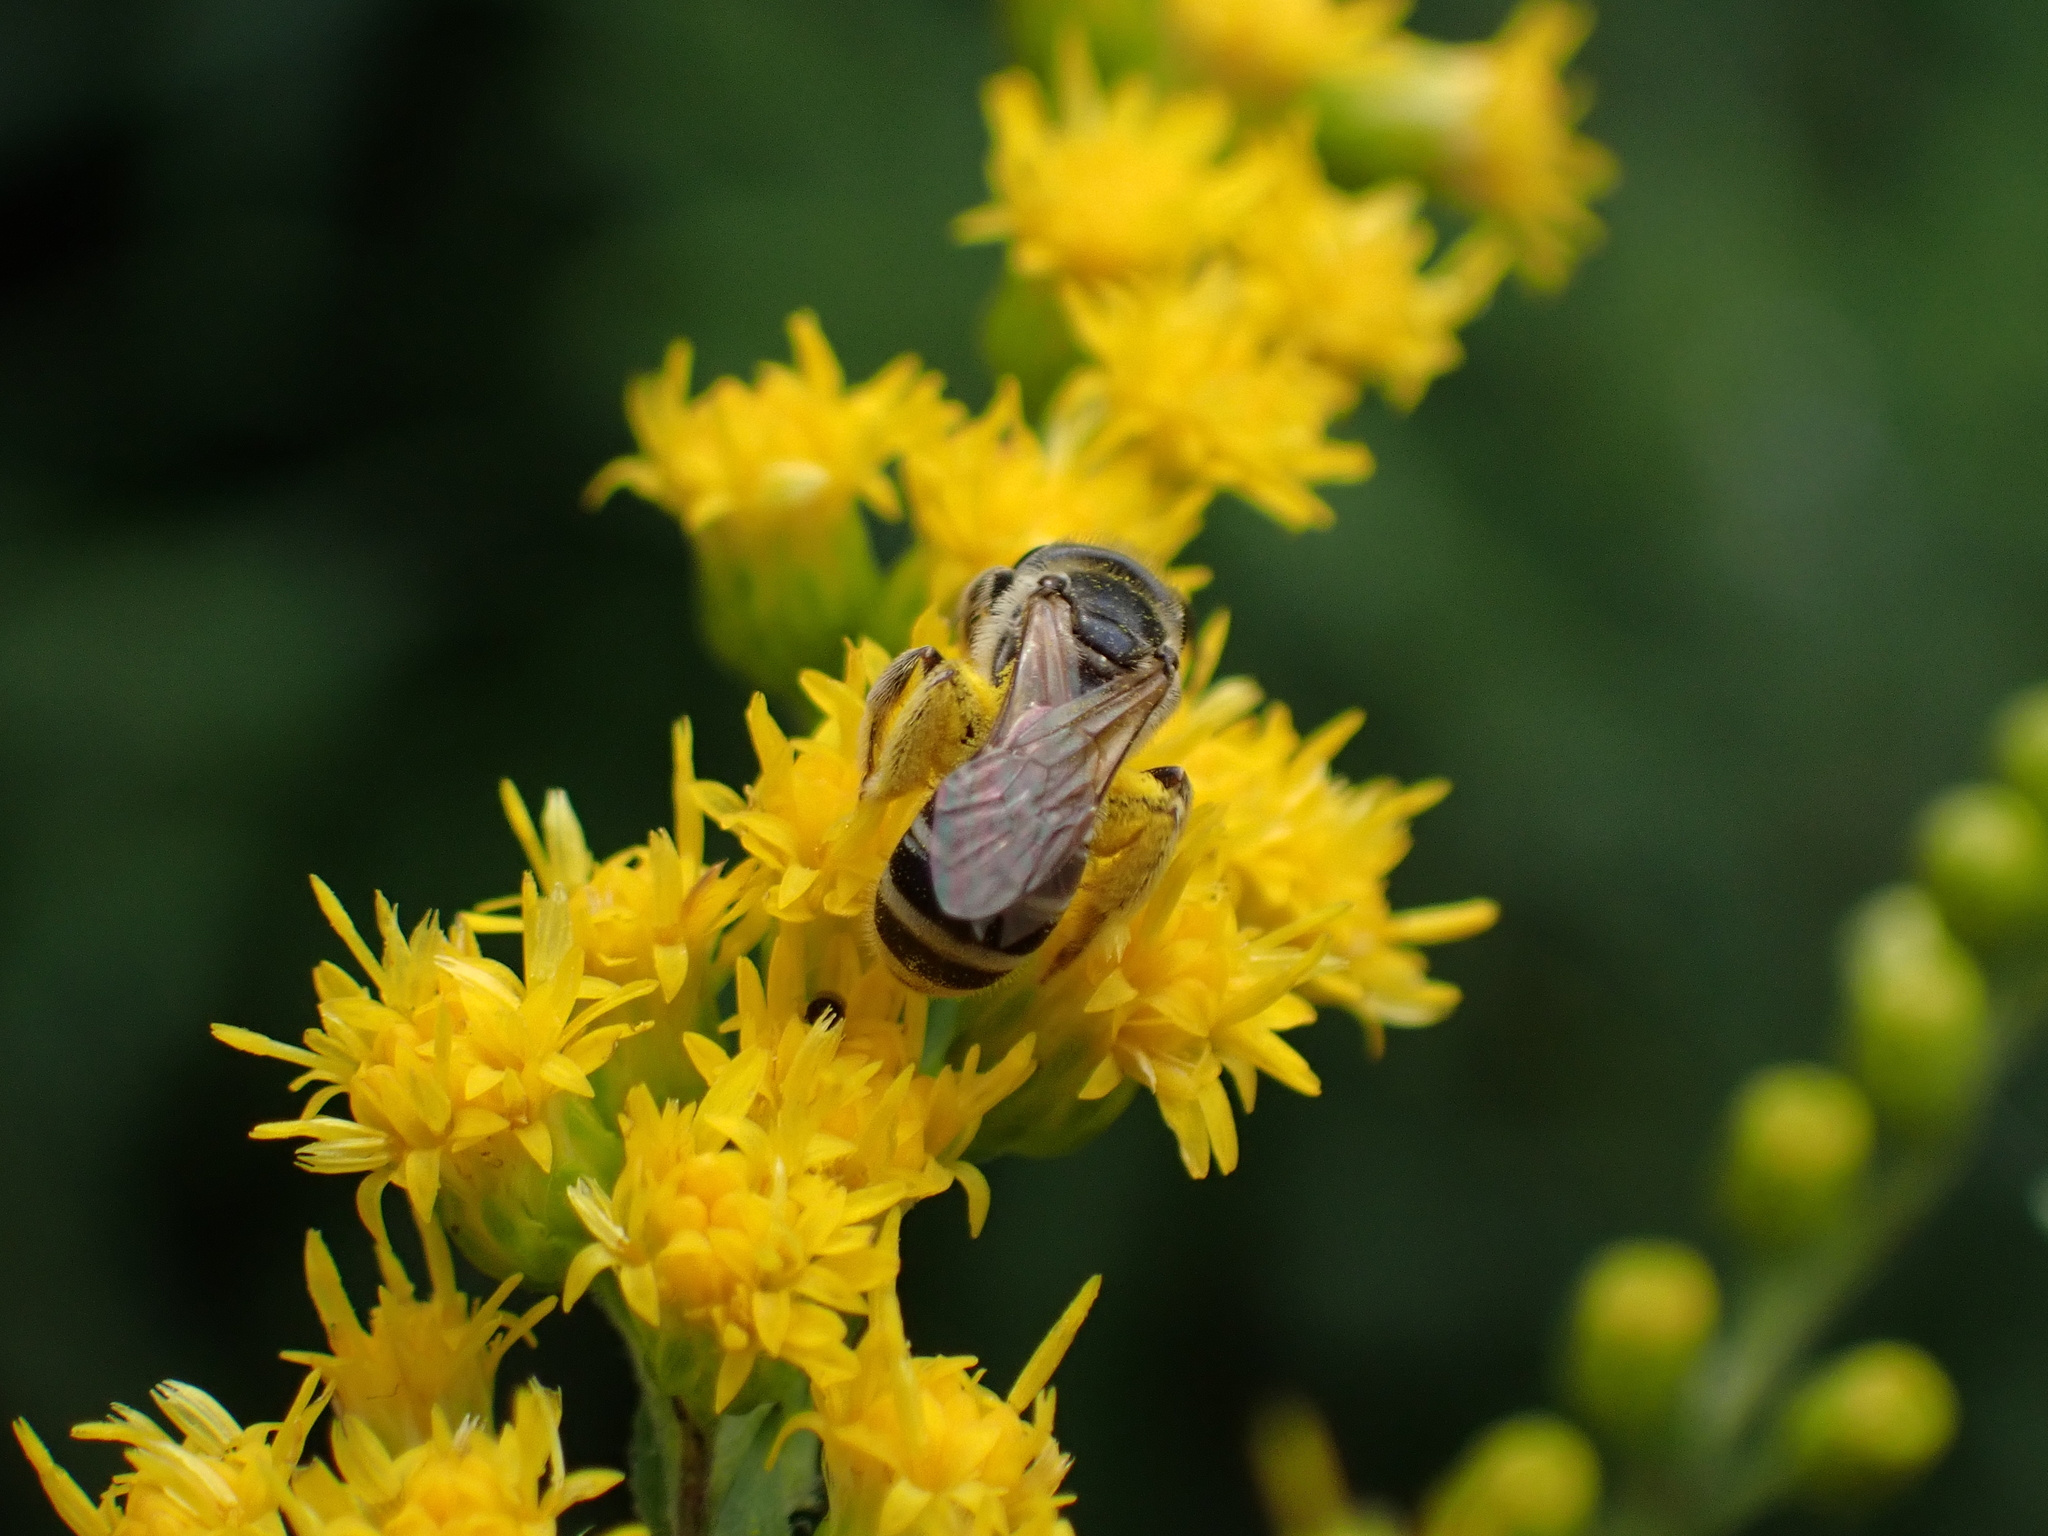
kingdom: Animalia
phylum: Arthropoda
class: Insecta
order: Hymenoptera
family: Halictidae
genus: Halictus
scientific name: Halictus ligatus
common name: Ligated furrow bee
